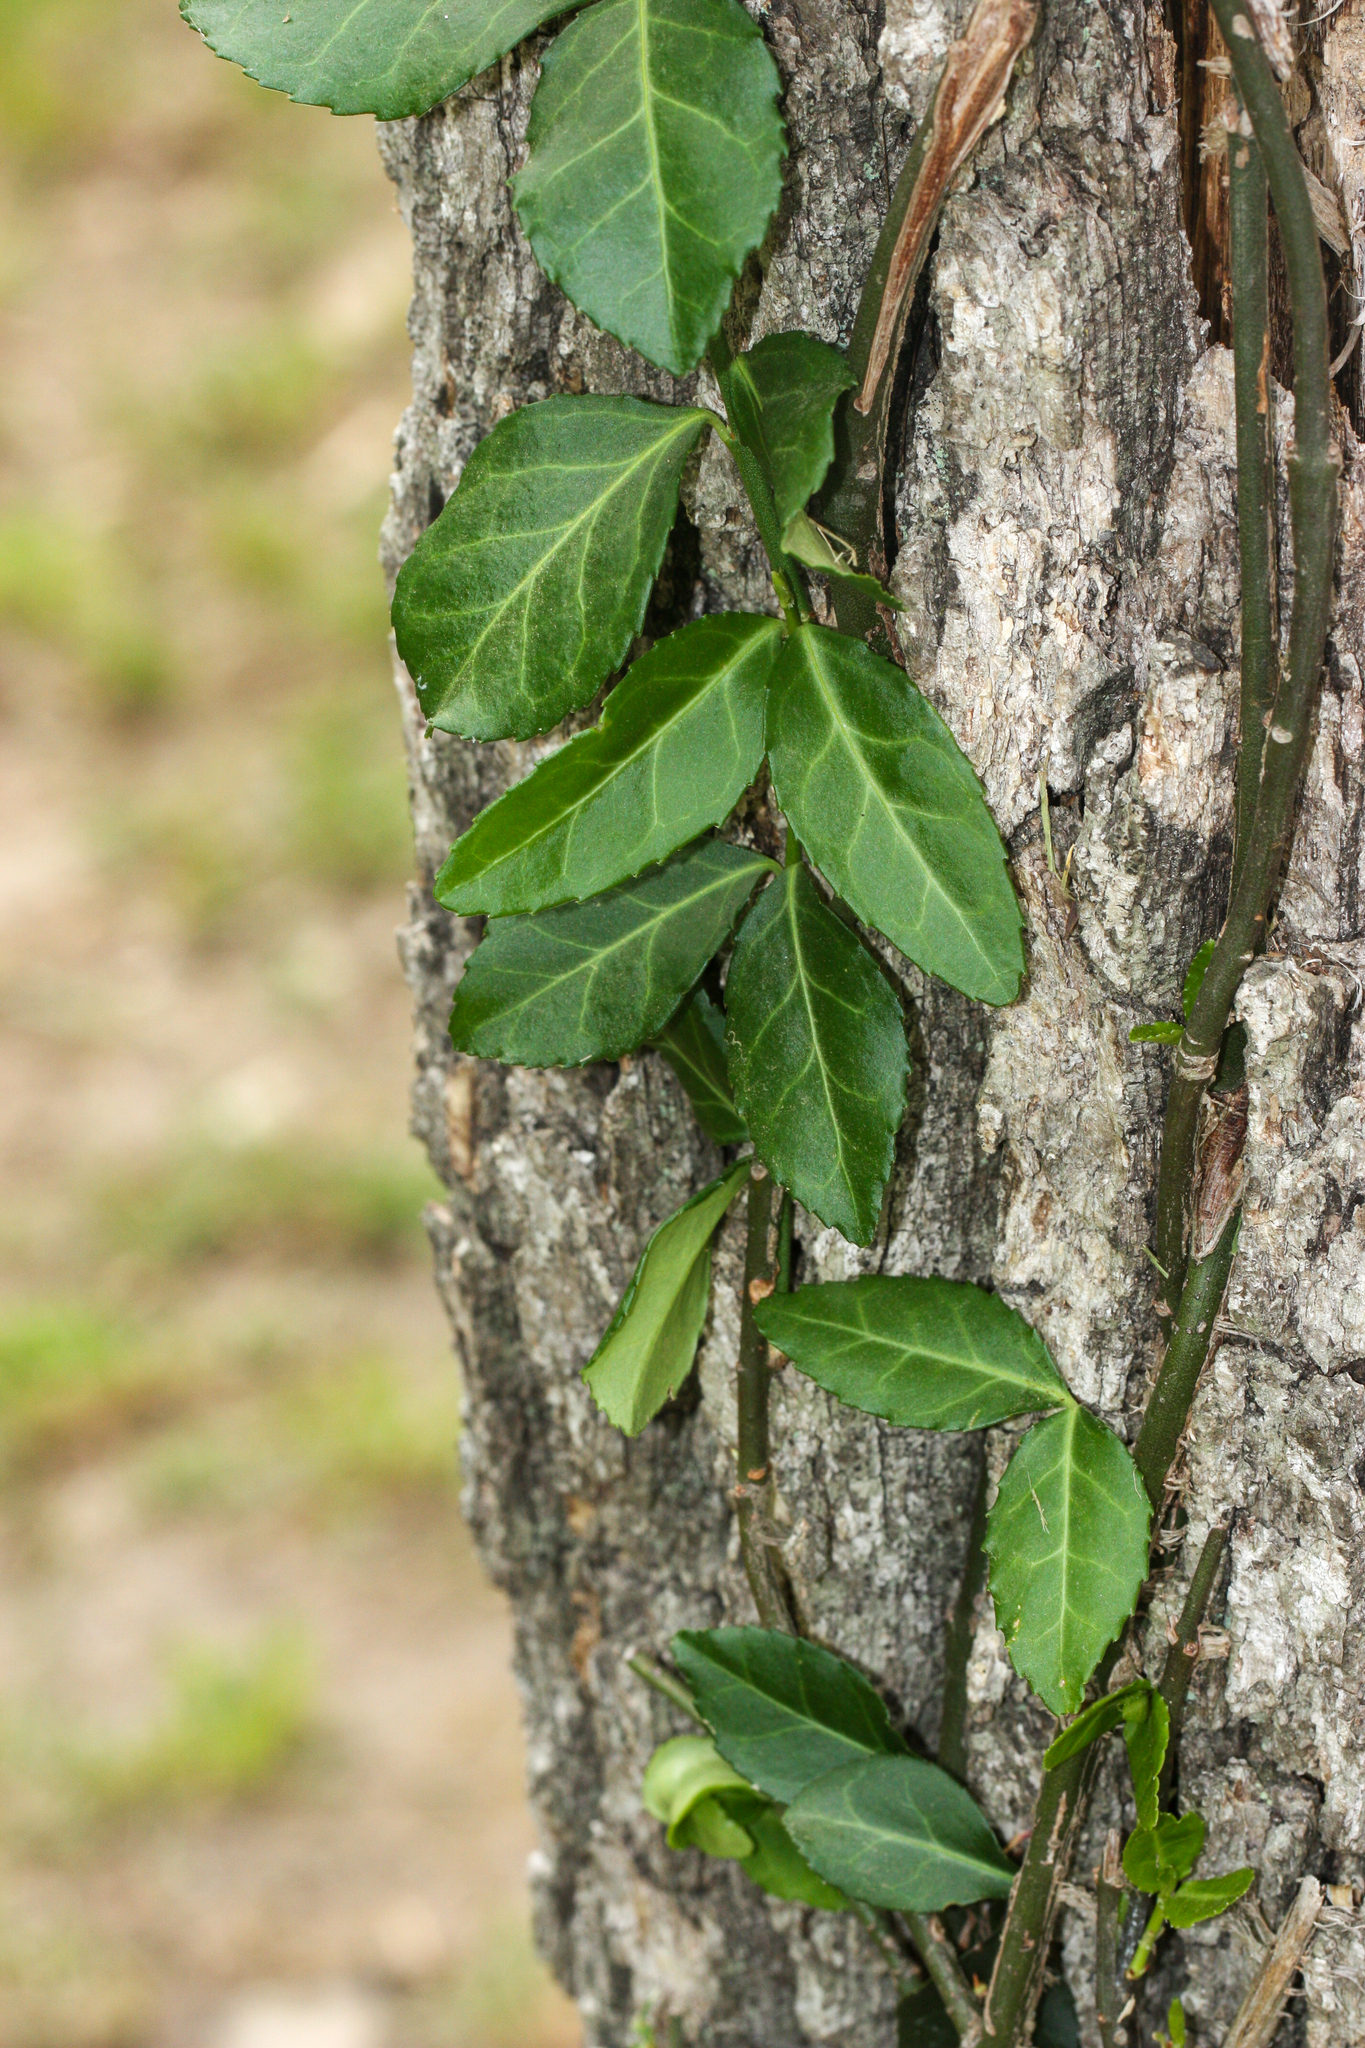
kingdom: Plantae
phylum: Tracheophyta
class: Magnoliopsida
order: Celastrales
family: Celastraceae
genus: Euonymus
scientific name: Euonymus fortunei
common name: Climbing euonymus
